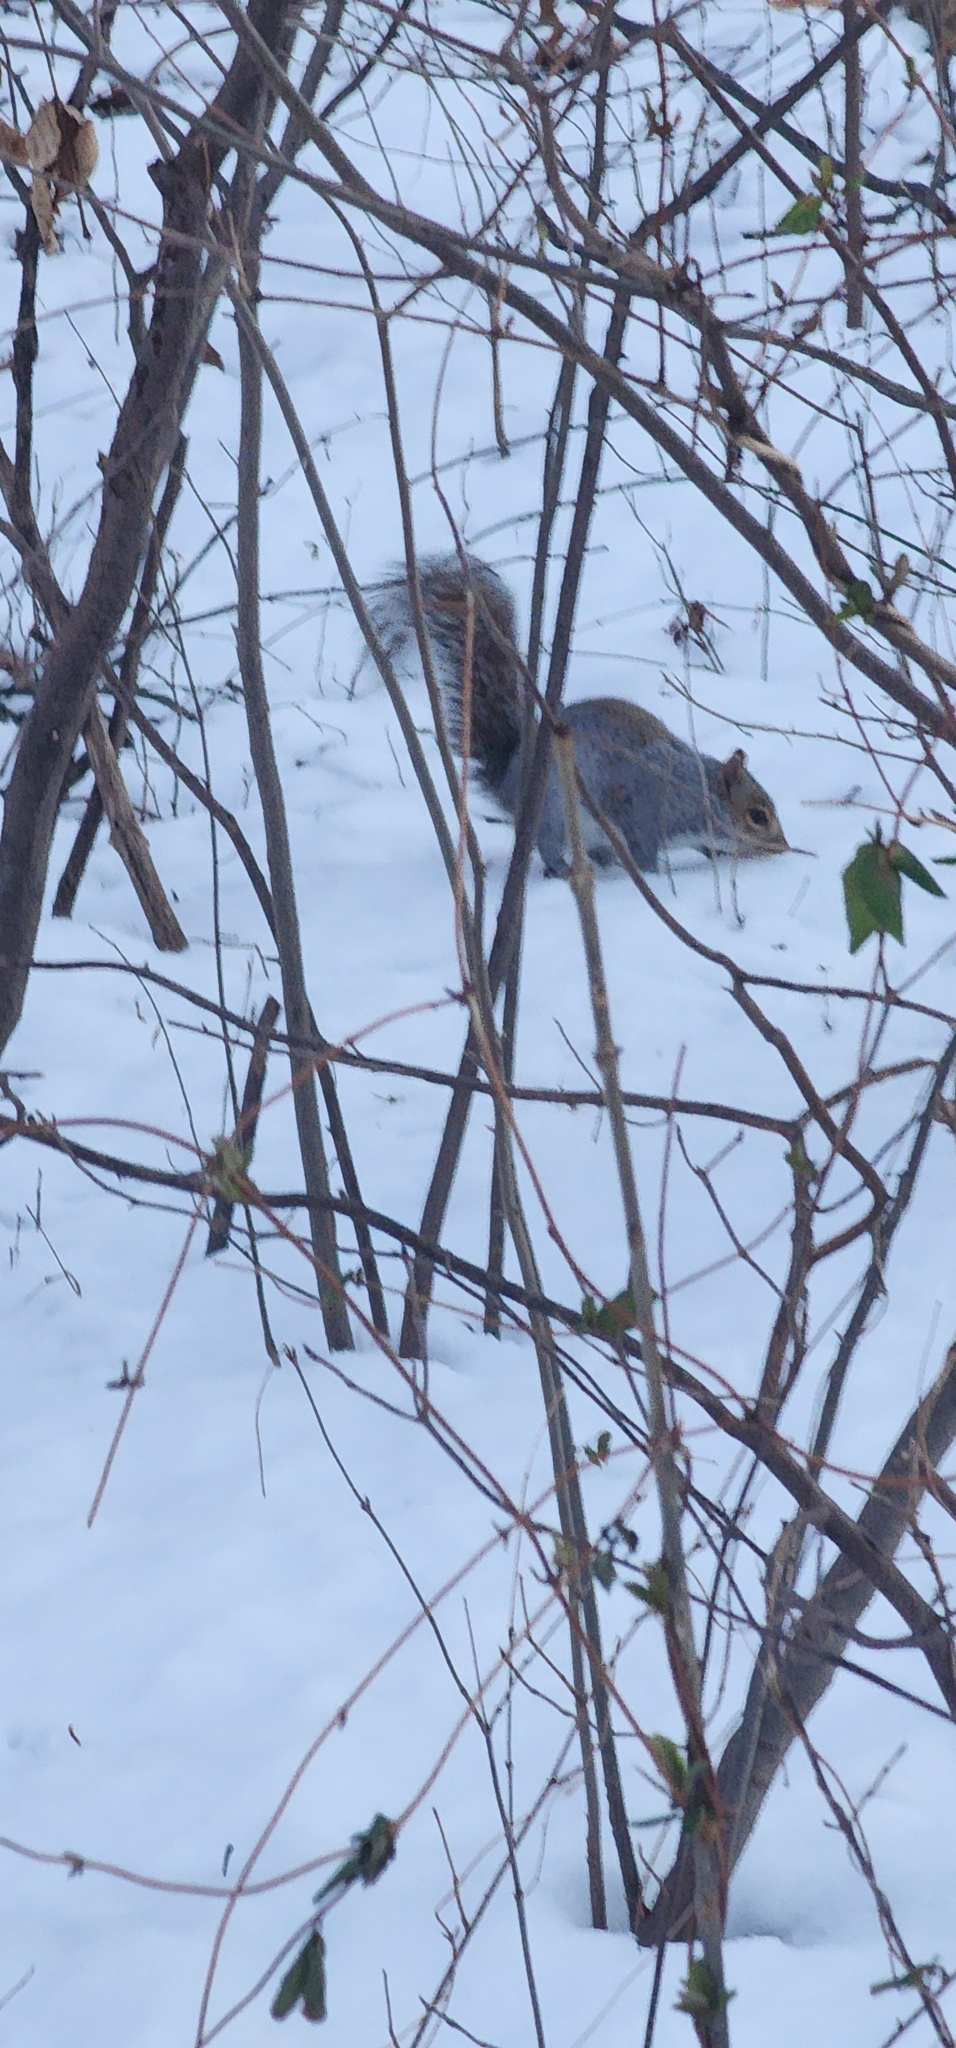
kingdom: Animalia
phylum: Chordata
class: Mammalia
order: Rodentia
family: Sciuridae
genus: Sciurus
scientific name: Sciurus carolinensis
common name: Eastern gray squirrel
